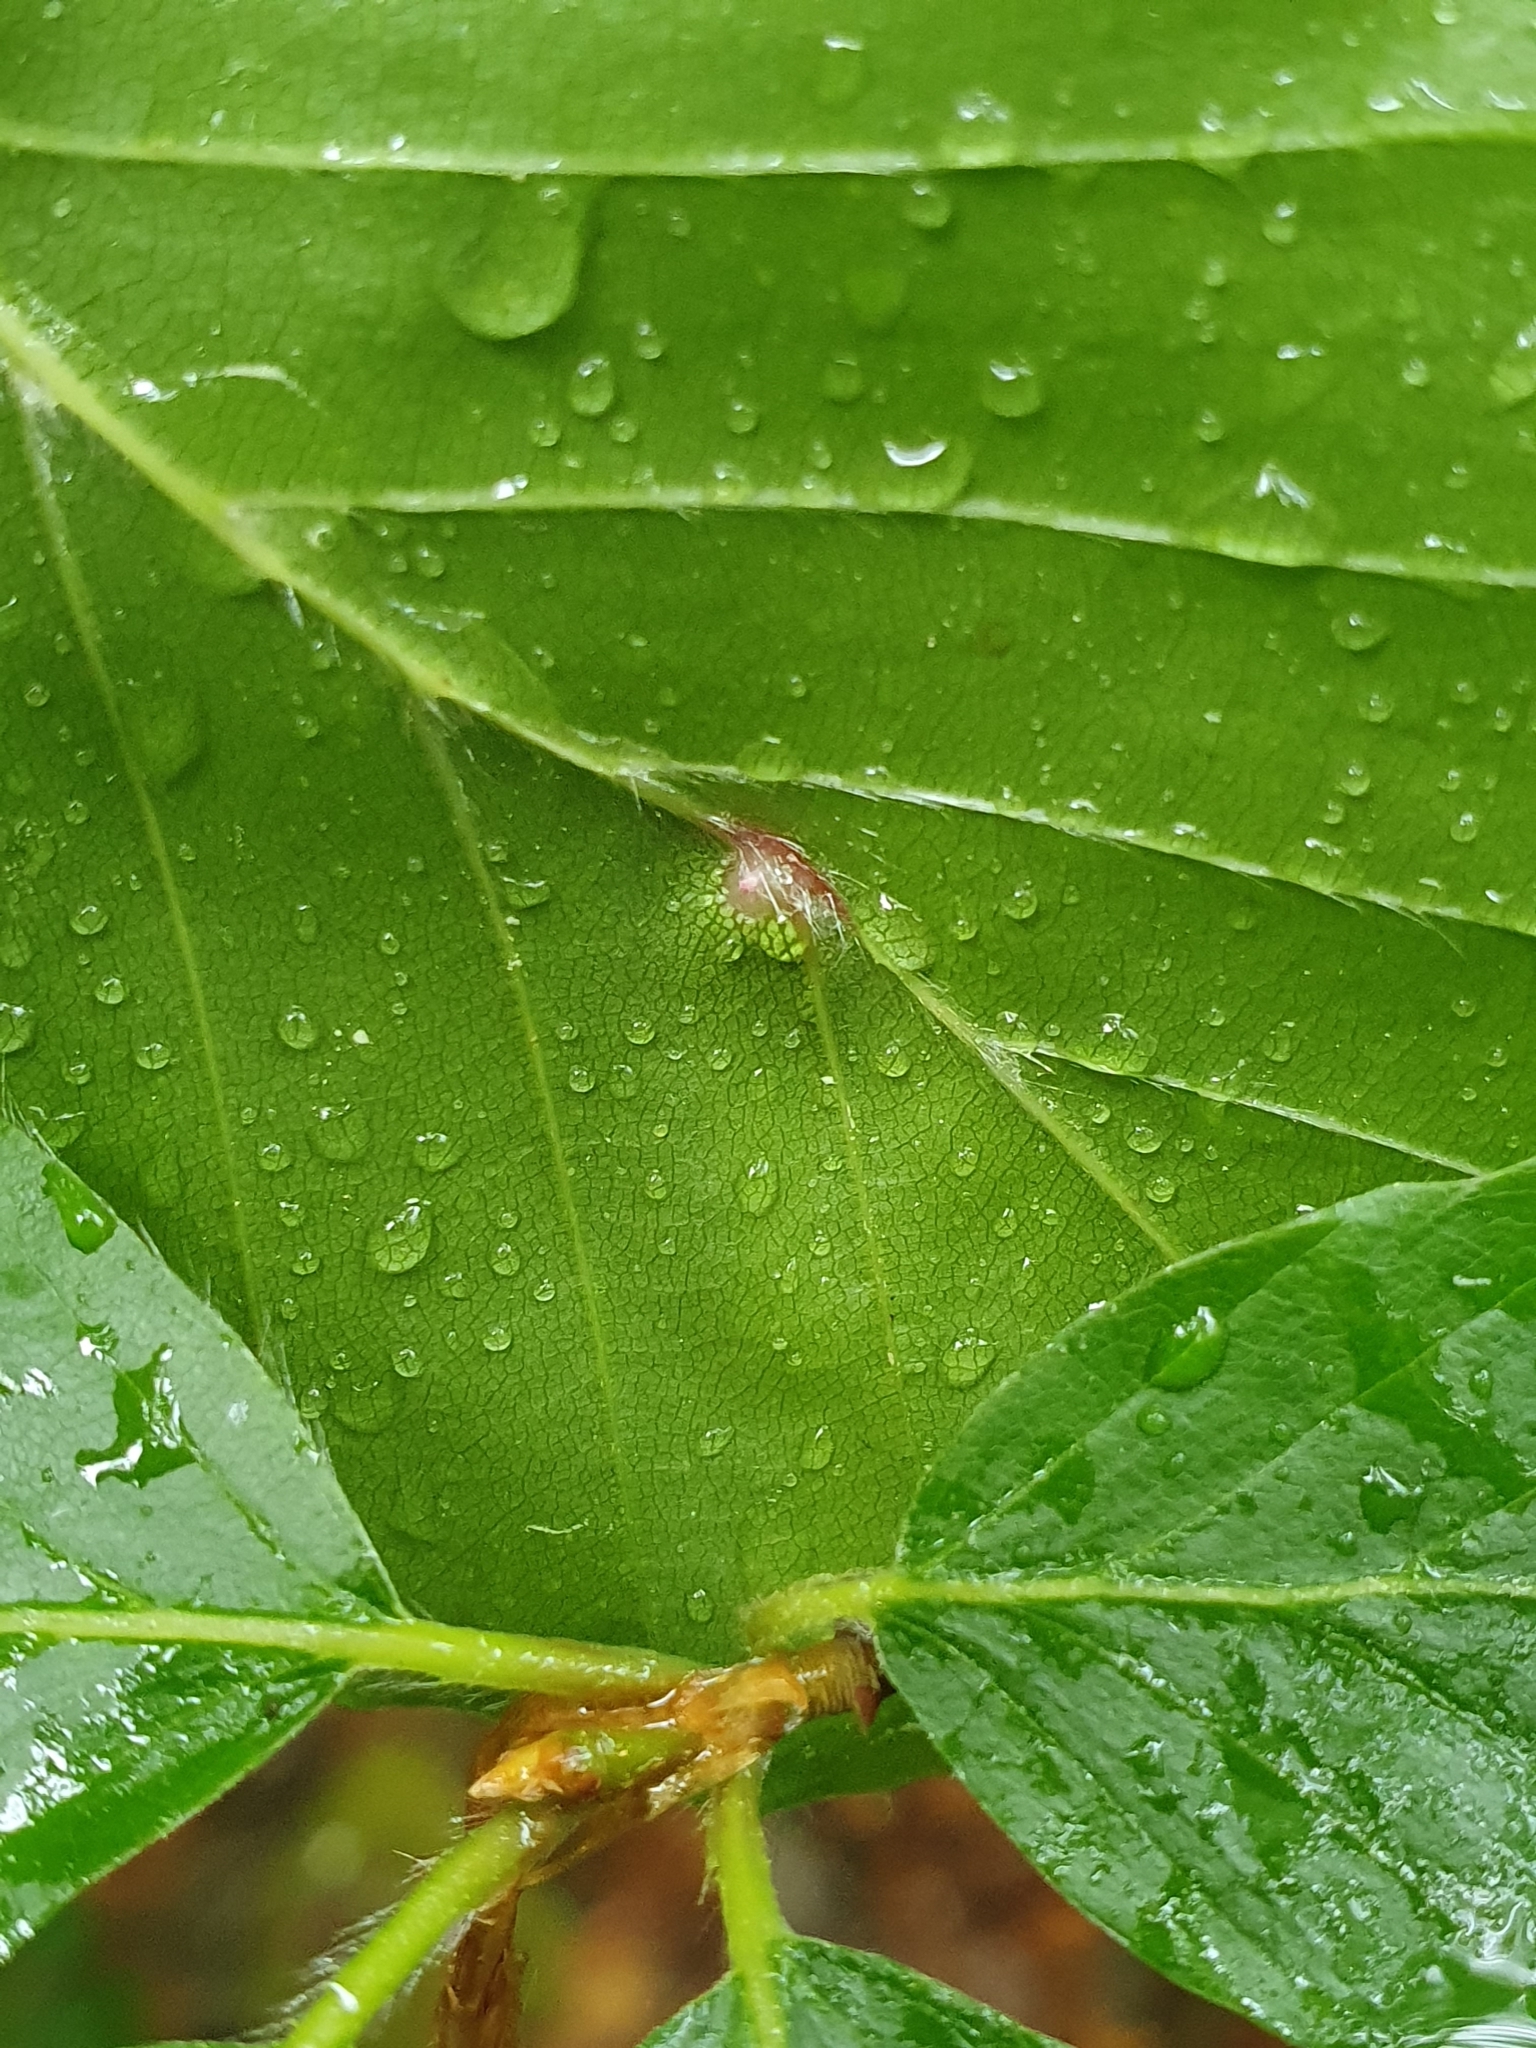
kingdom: Animalia
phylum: Arthropoda
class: Insecta
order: Diptera
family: Cecidomyiidae
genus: Mikiola
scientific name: Mikiola fagi
